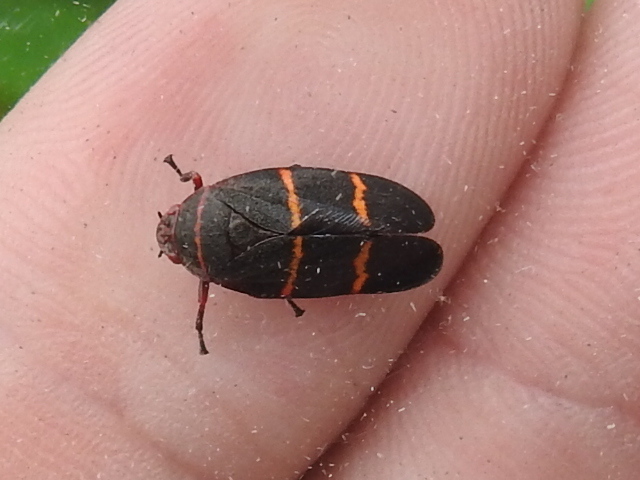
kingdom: Animalia
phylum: Arthropoda
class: Insecta
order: Hemiptera
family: Cercopidae
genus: Prosapia
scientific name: Prosapia bicincta
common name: Twolined spittlebug
